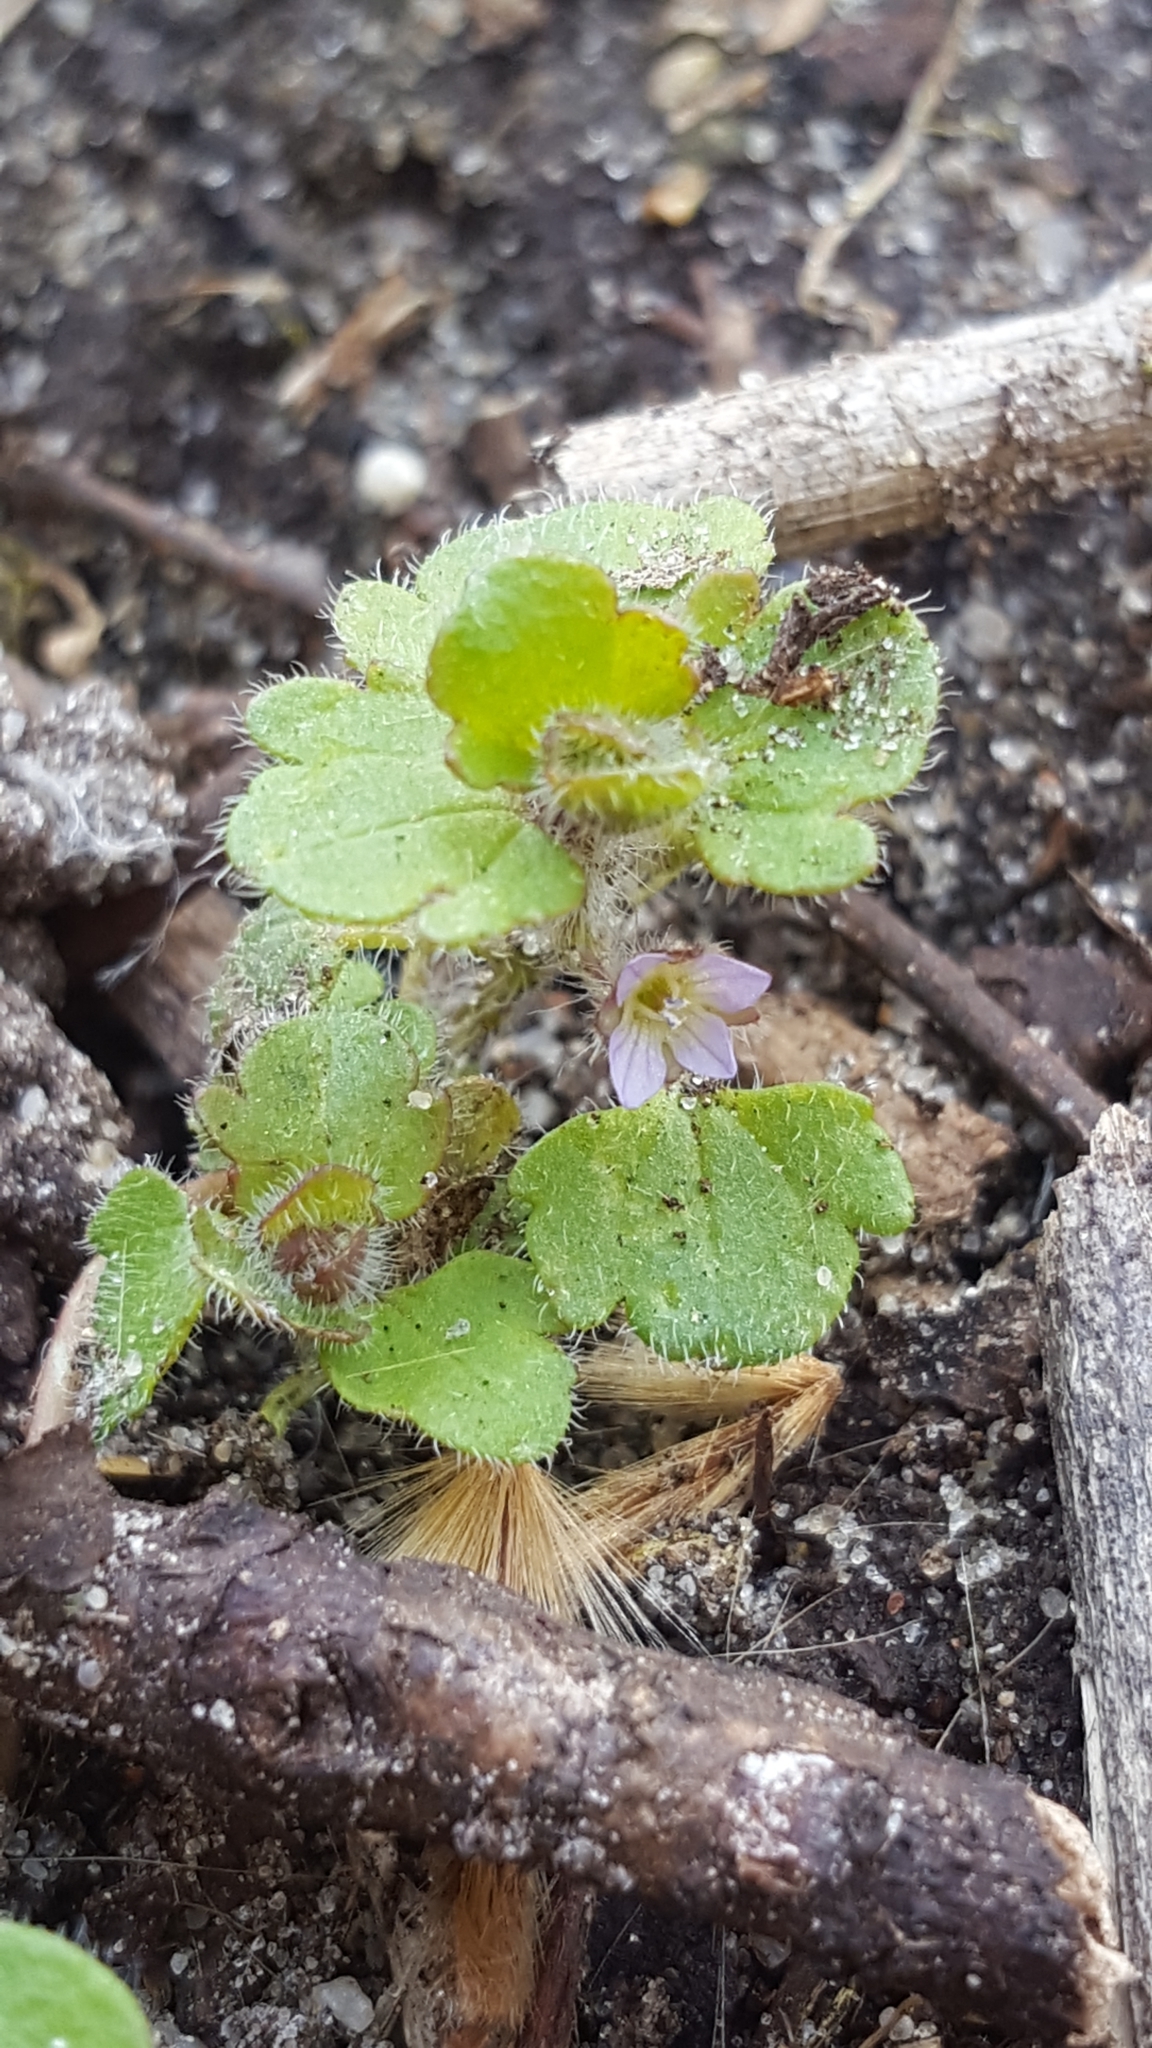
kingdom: Plantae
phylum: Tracheophyta
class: Magnoliopsida
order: Lamiales
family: Plantaginaceae
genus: Veronica
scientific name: Veronica hederifolia
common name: Ivy-leaved speedwell
